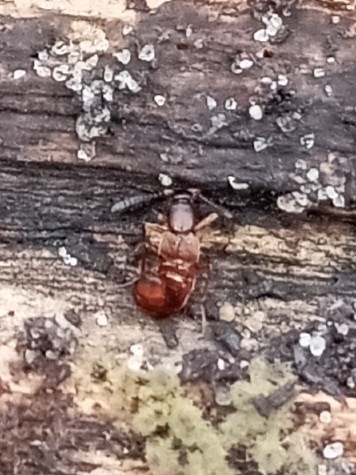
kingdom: Animalia
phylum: Arthropoda
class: Insecta
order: Coleoptera
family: Staphylinidae
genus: Drusilla
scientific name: Drusilla canaliculata
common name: Rove beetle
